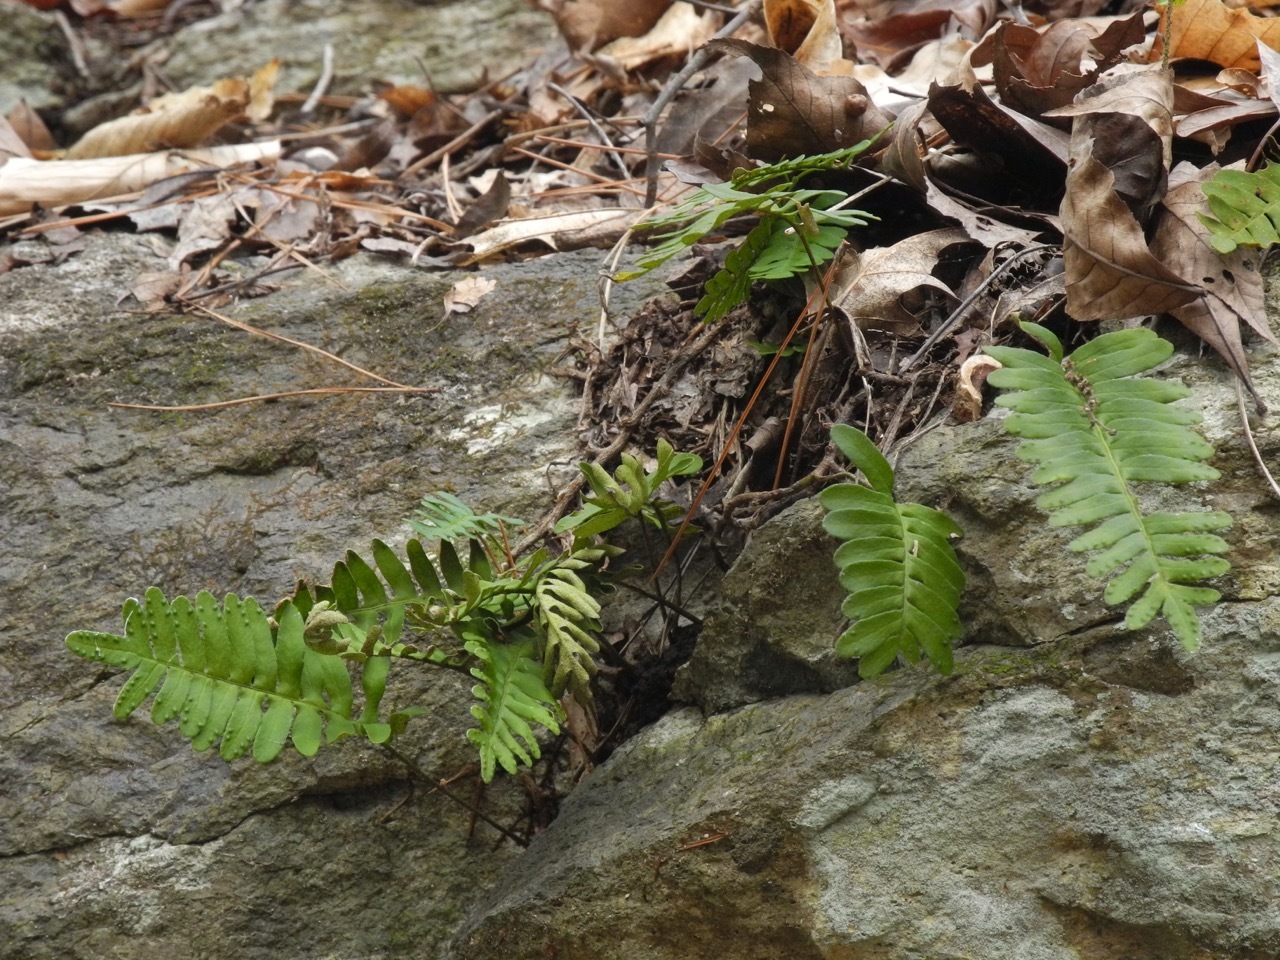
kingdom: Plantae
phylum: Tracheophyta
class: Polypodiopsida
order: Polypodiales
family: Polypodiaceae
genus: Pleopeltis
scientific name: Pleopeltis michauxiana
